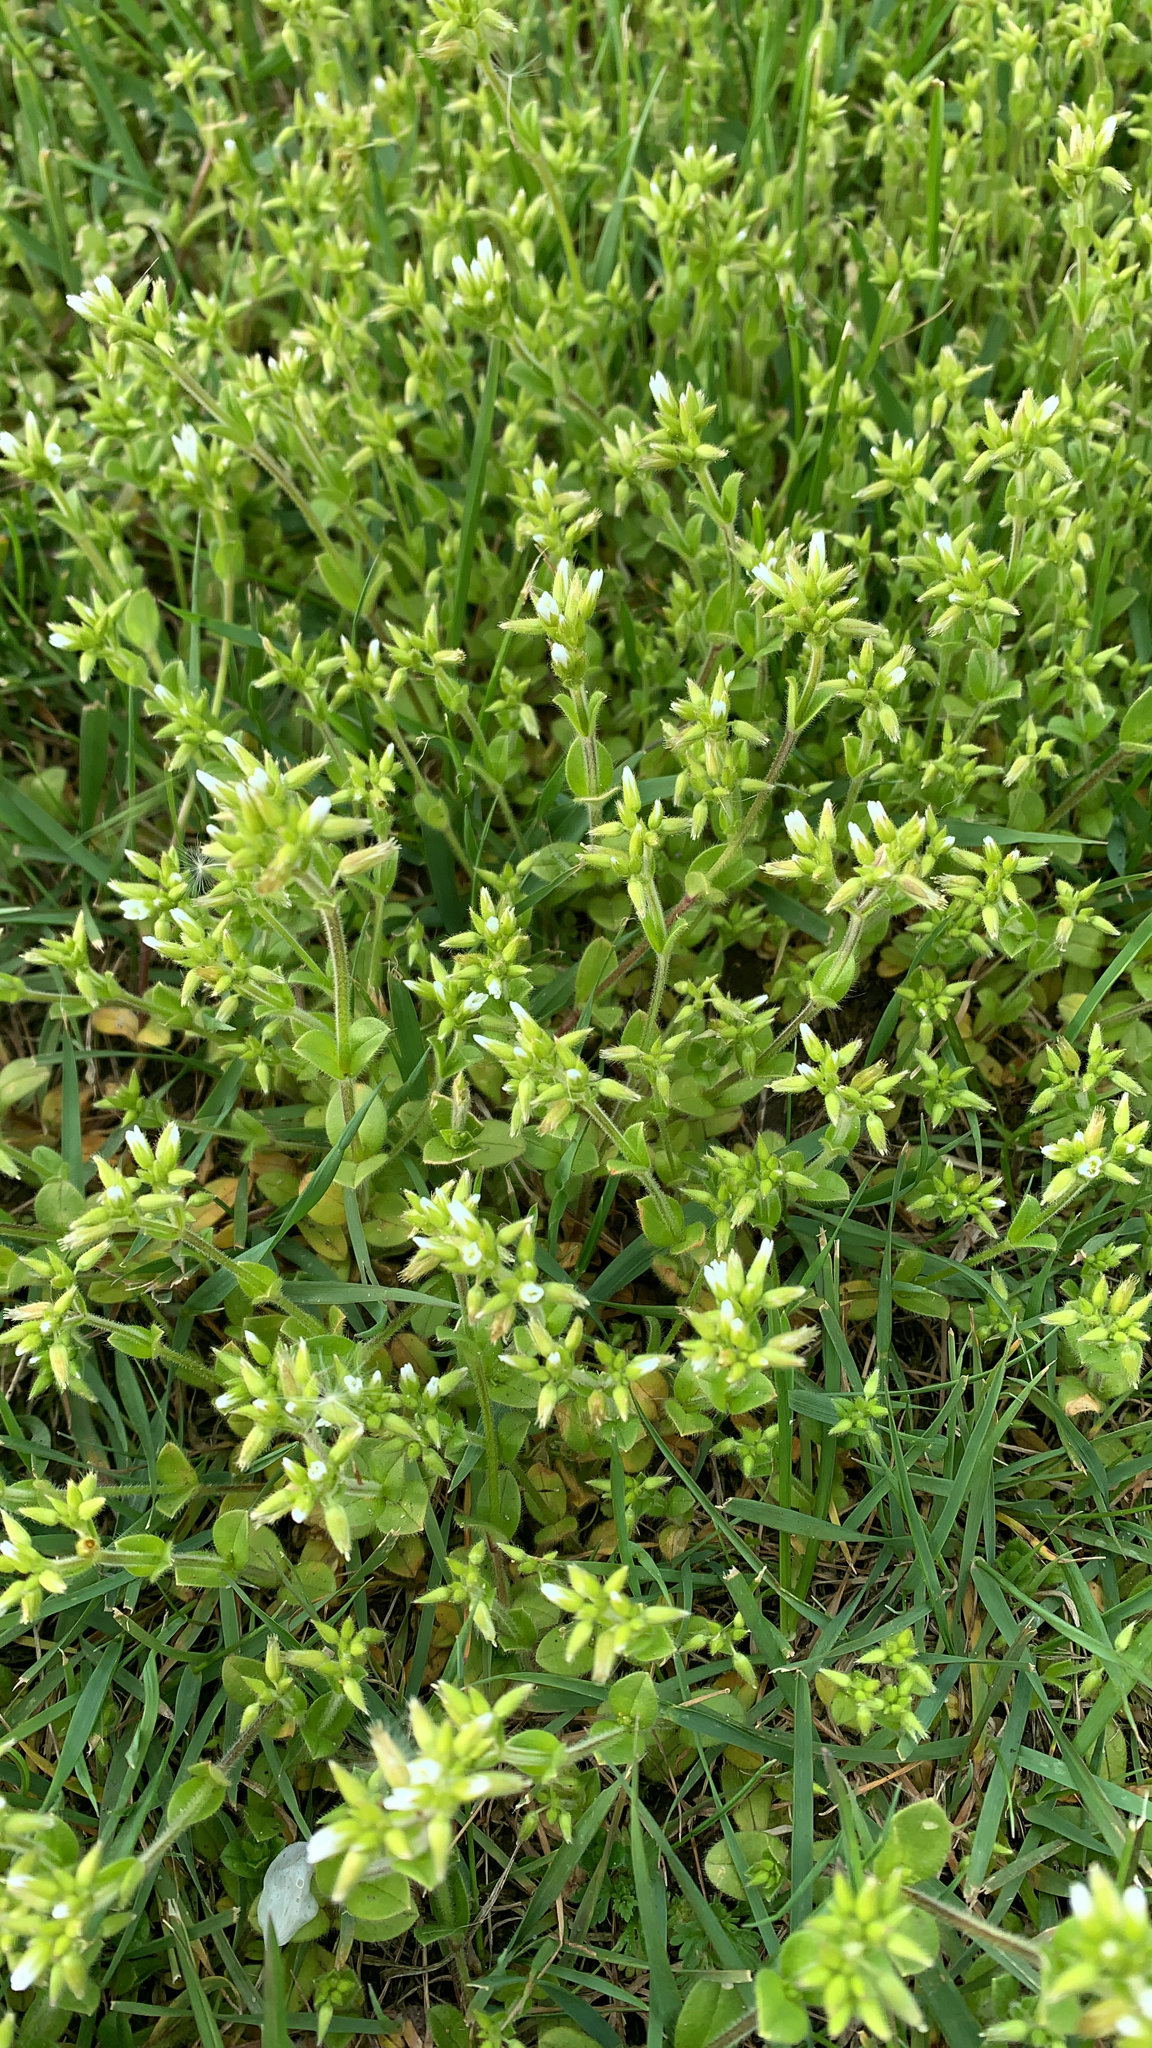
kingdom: Plantae
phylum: Tracheophyta
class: Magnoliopsida
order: Caryophyllales
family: Caryophyllaceae
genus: Cerastium
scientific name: Cerastium glomeratum
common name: Sticky chickweed
